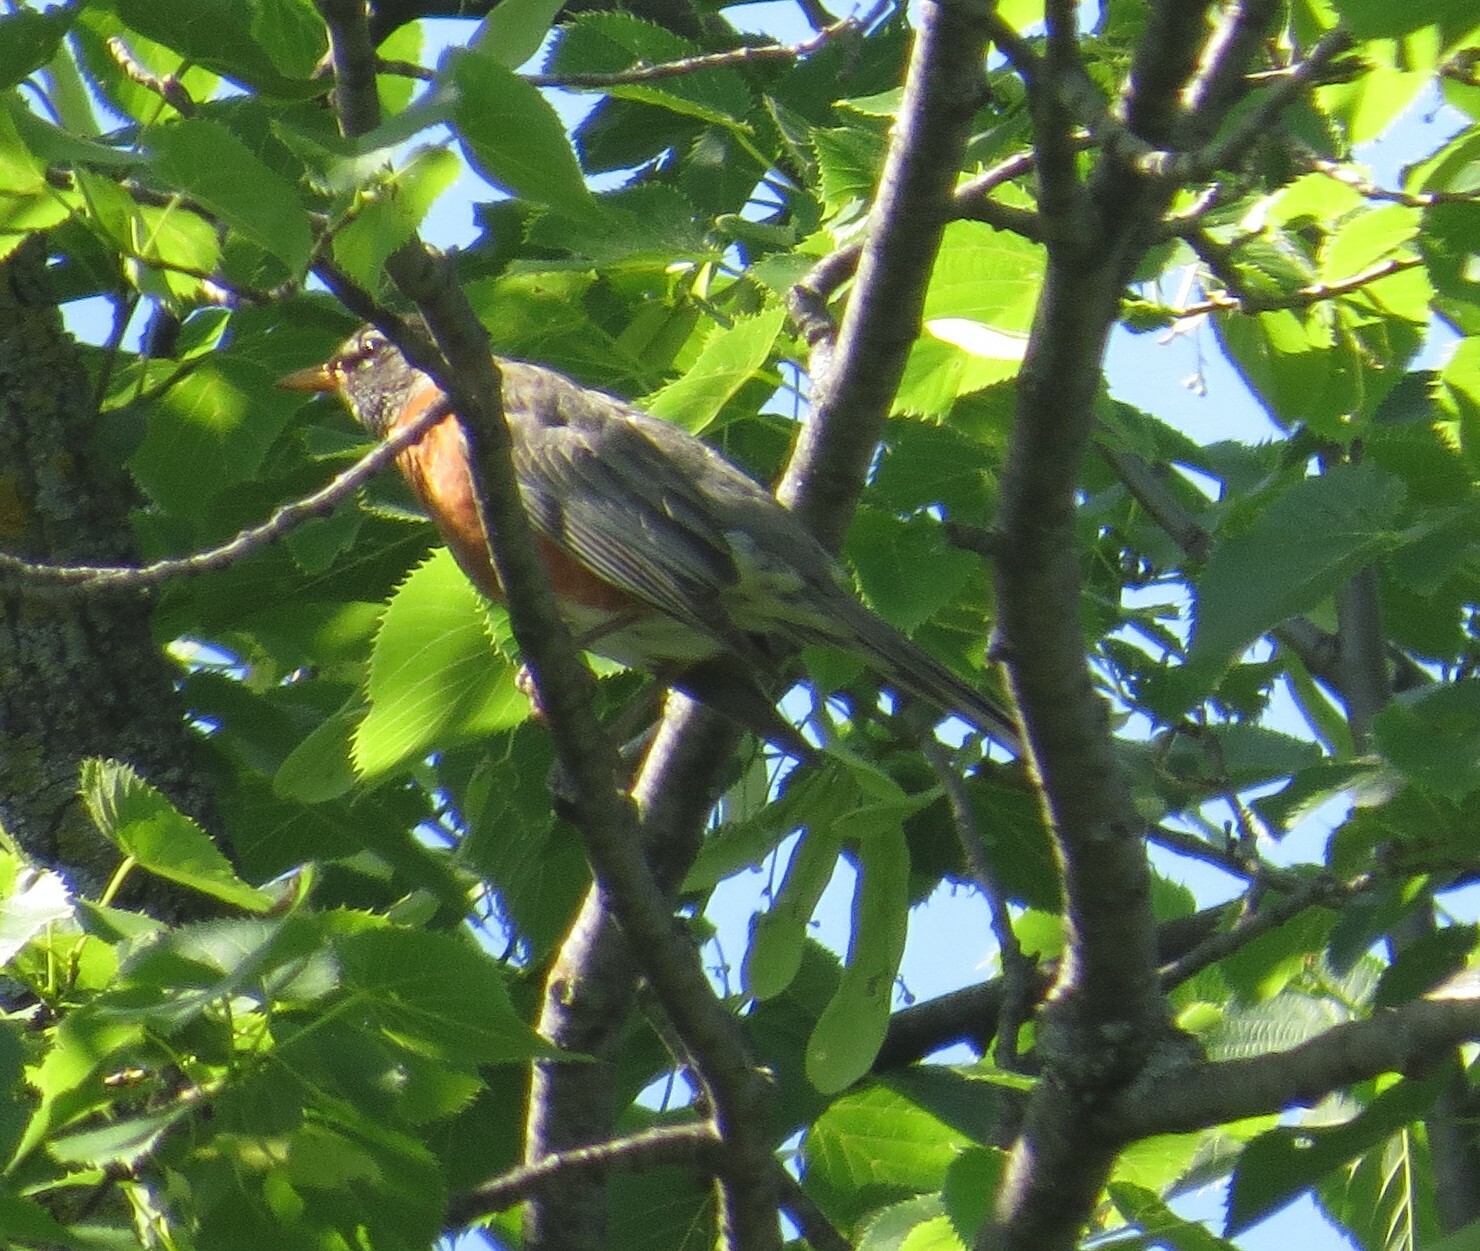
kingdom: Animalia
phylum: Chordata
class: Aves
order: Passeriformes
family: Turdidae
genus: Turdus
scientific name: Turdus migratorius
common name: American robin
